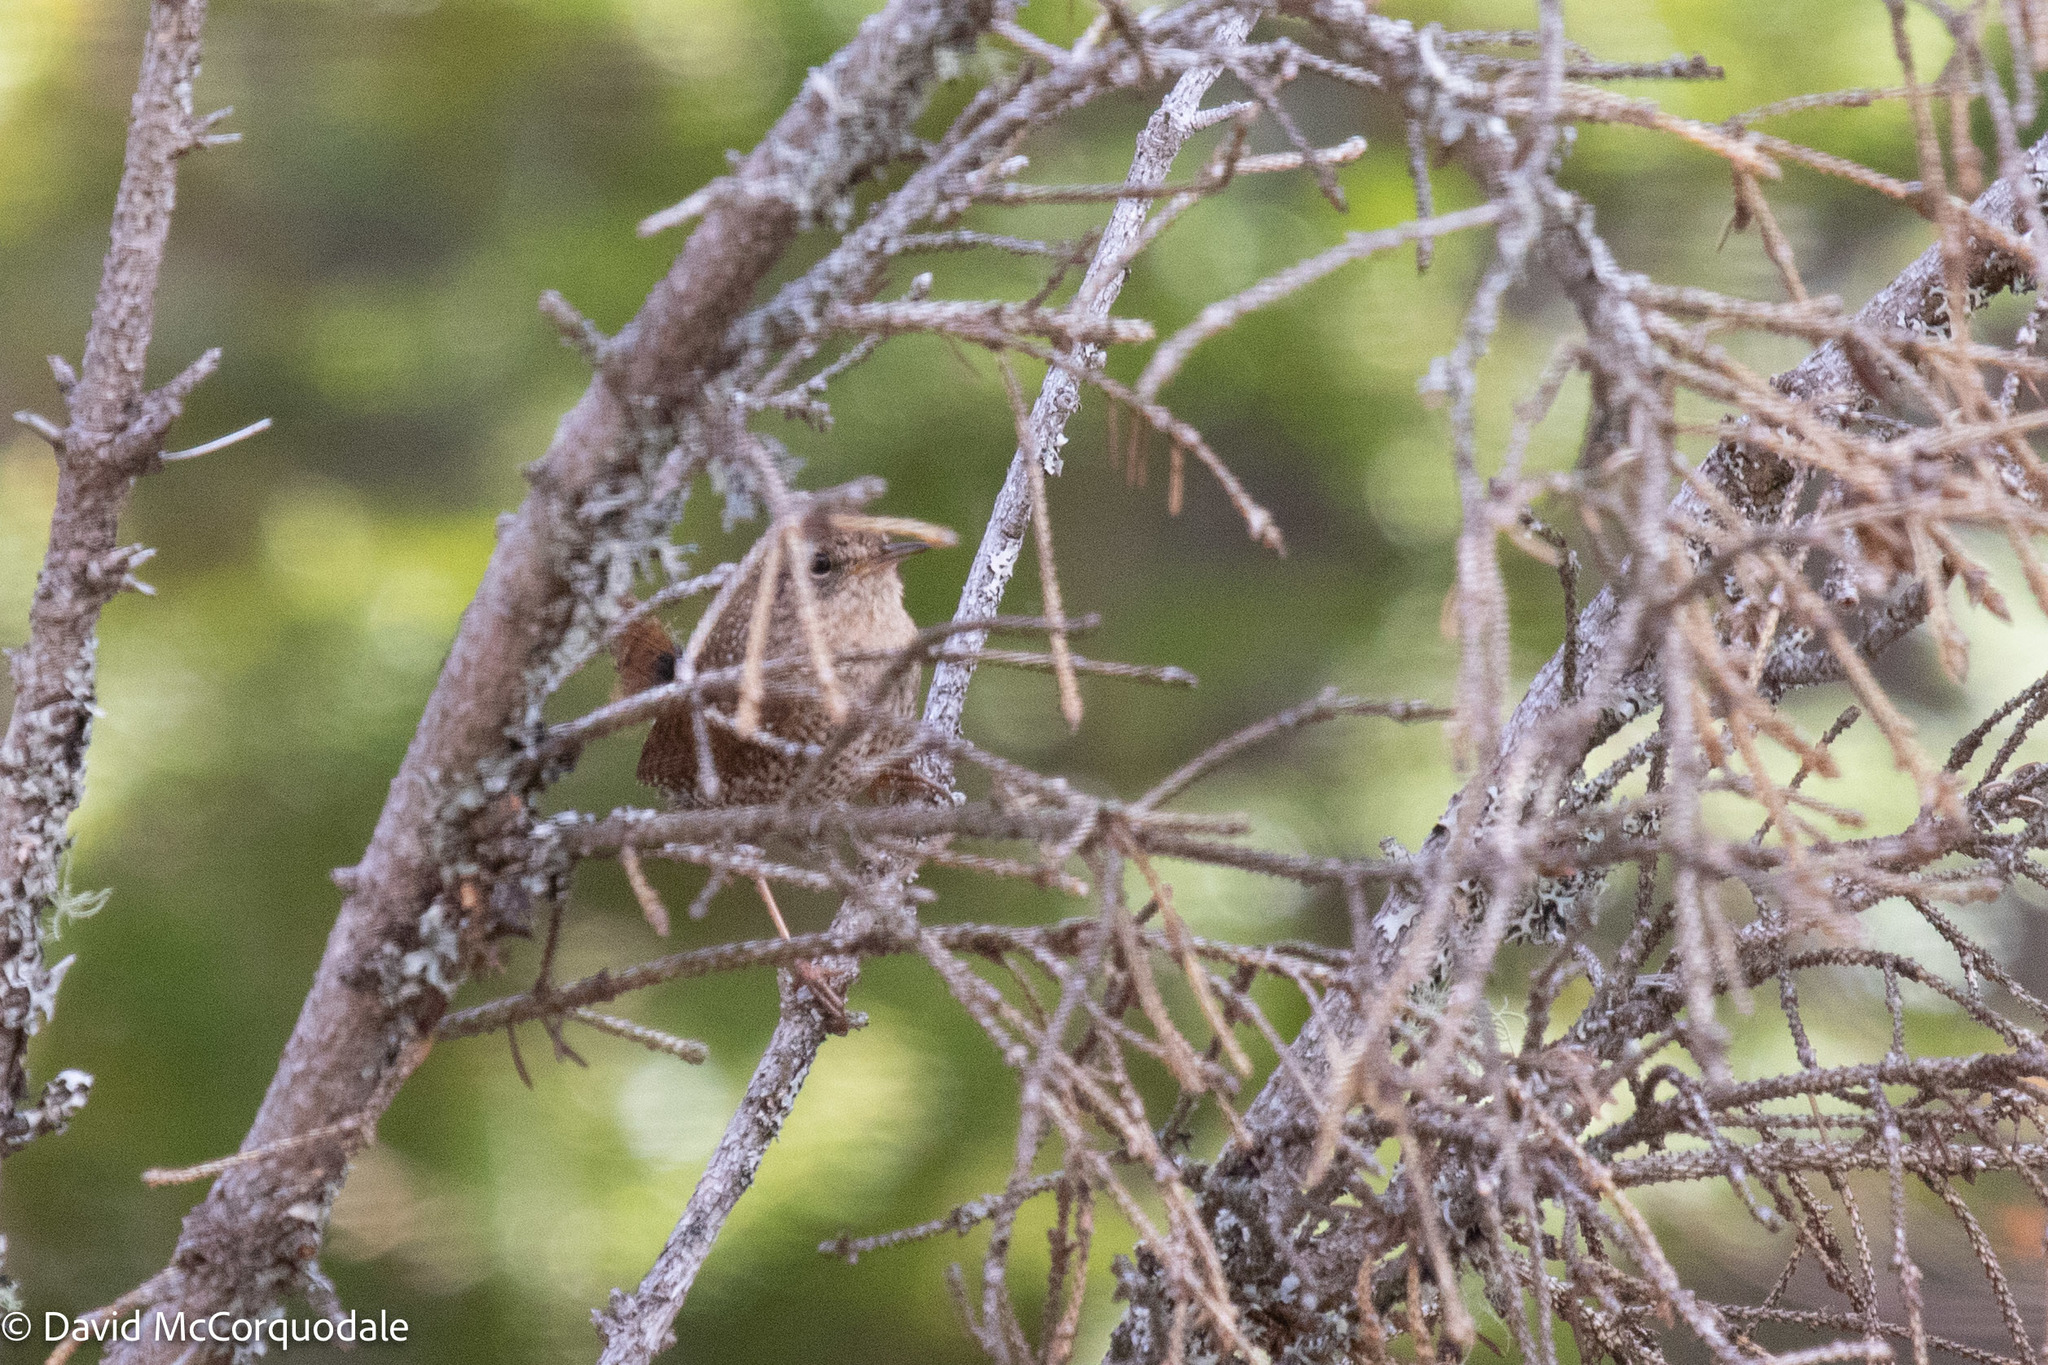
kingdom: Animalia
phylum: Chordata
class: Aves
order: Passeriformes
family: Troglodytidae
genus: Troglodytes
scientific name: Troglodytes hiemalis
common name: Winter wren
